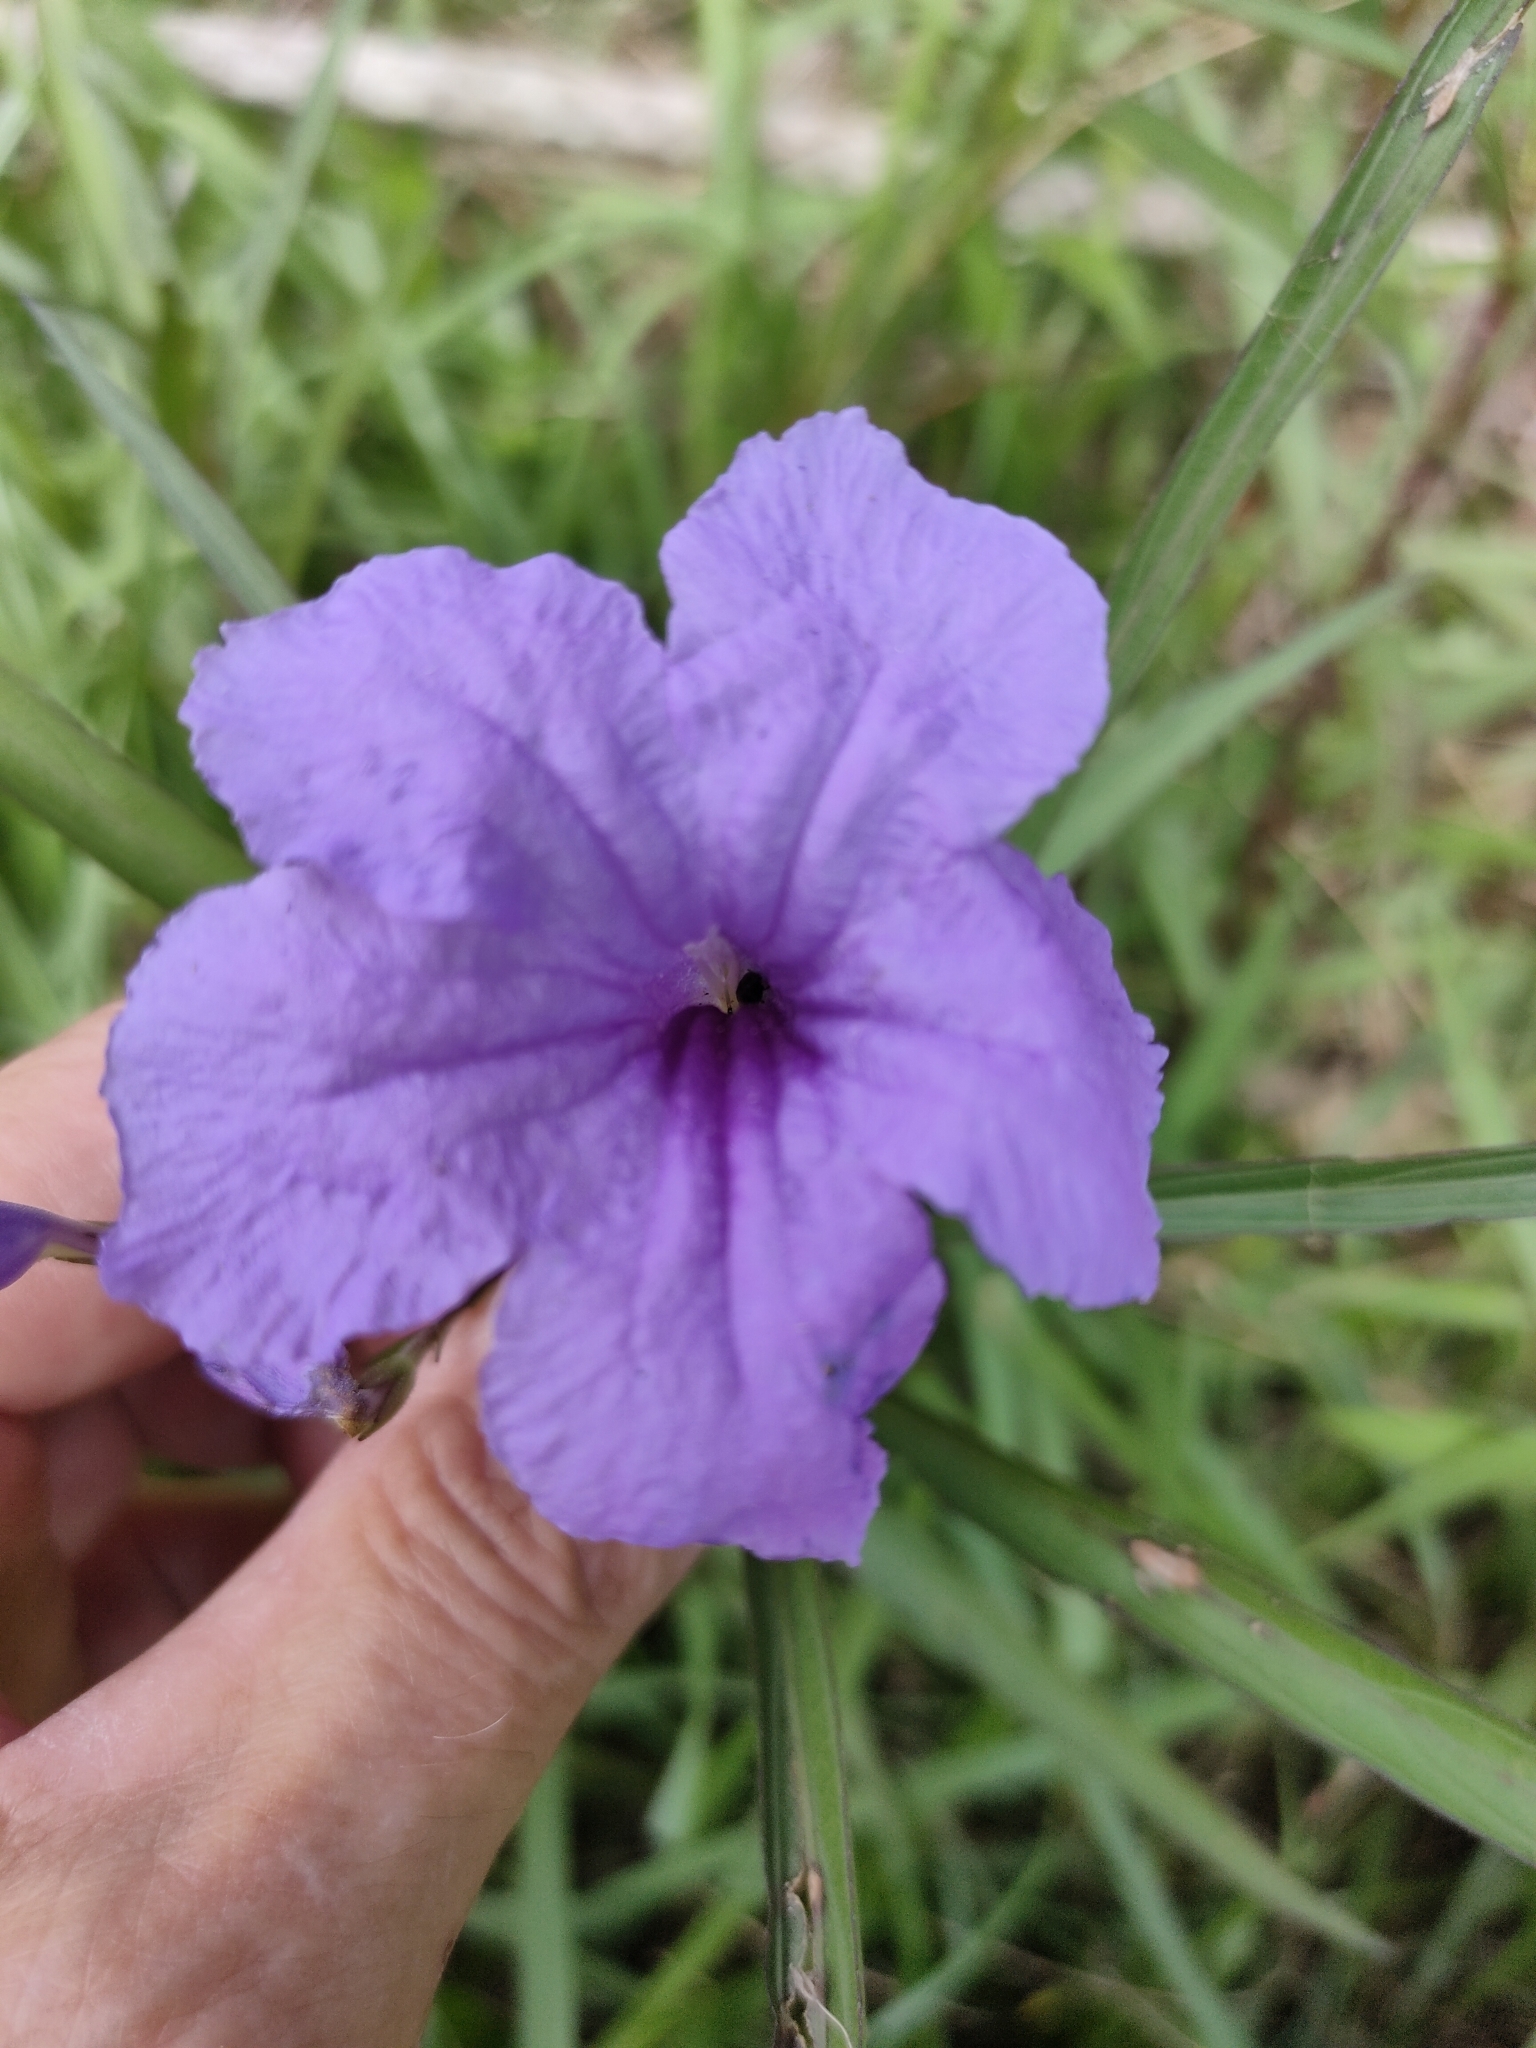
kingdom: Plantae
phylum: Tracheophyta
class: Magnoliopsida
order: Lamiales
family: Acanthaceae
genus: Ruellia
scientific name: Ruellia simplex
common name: Softseed wild petunia
